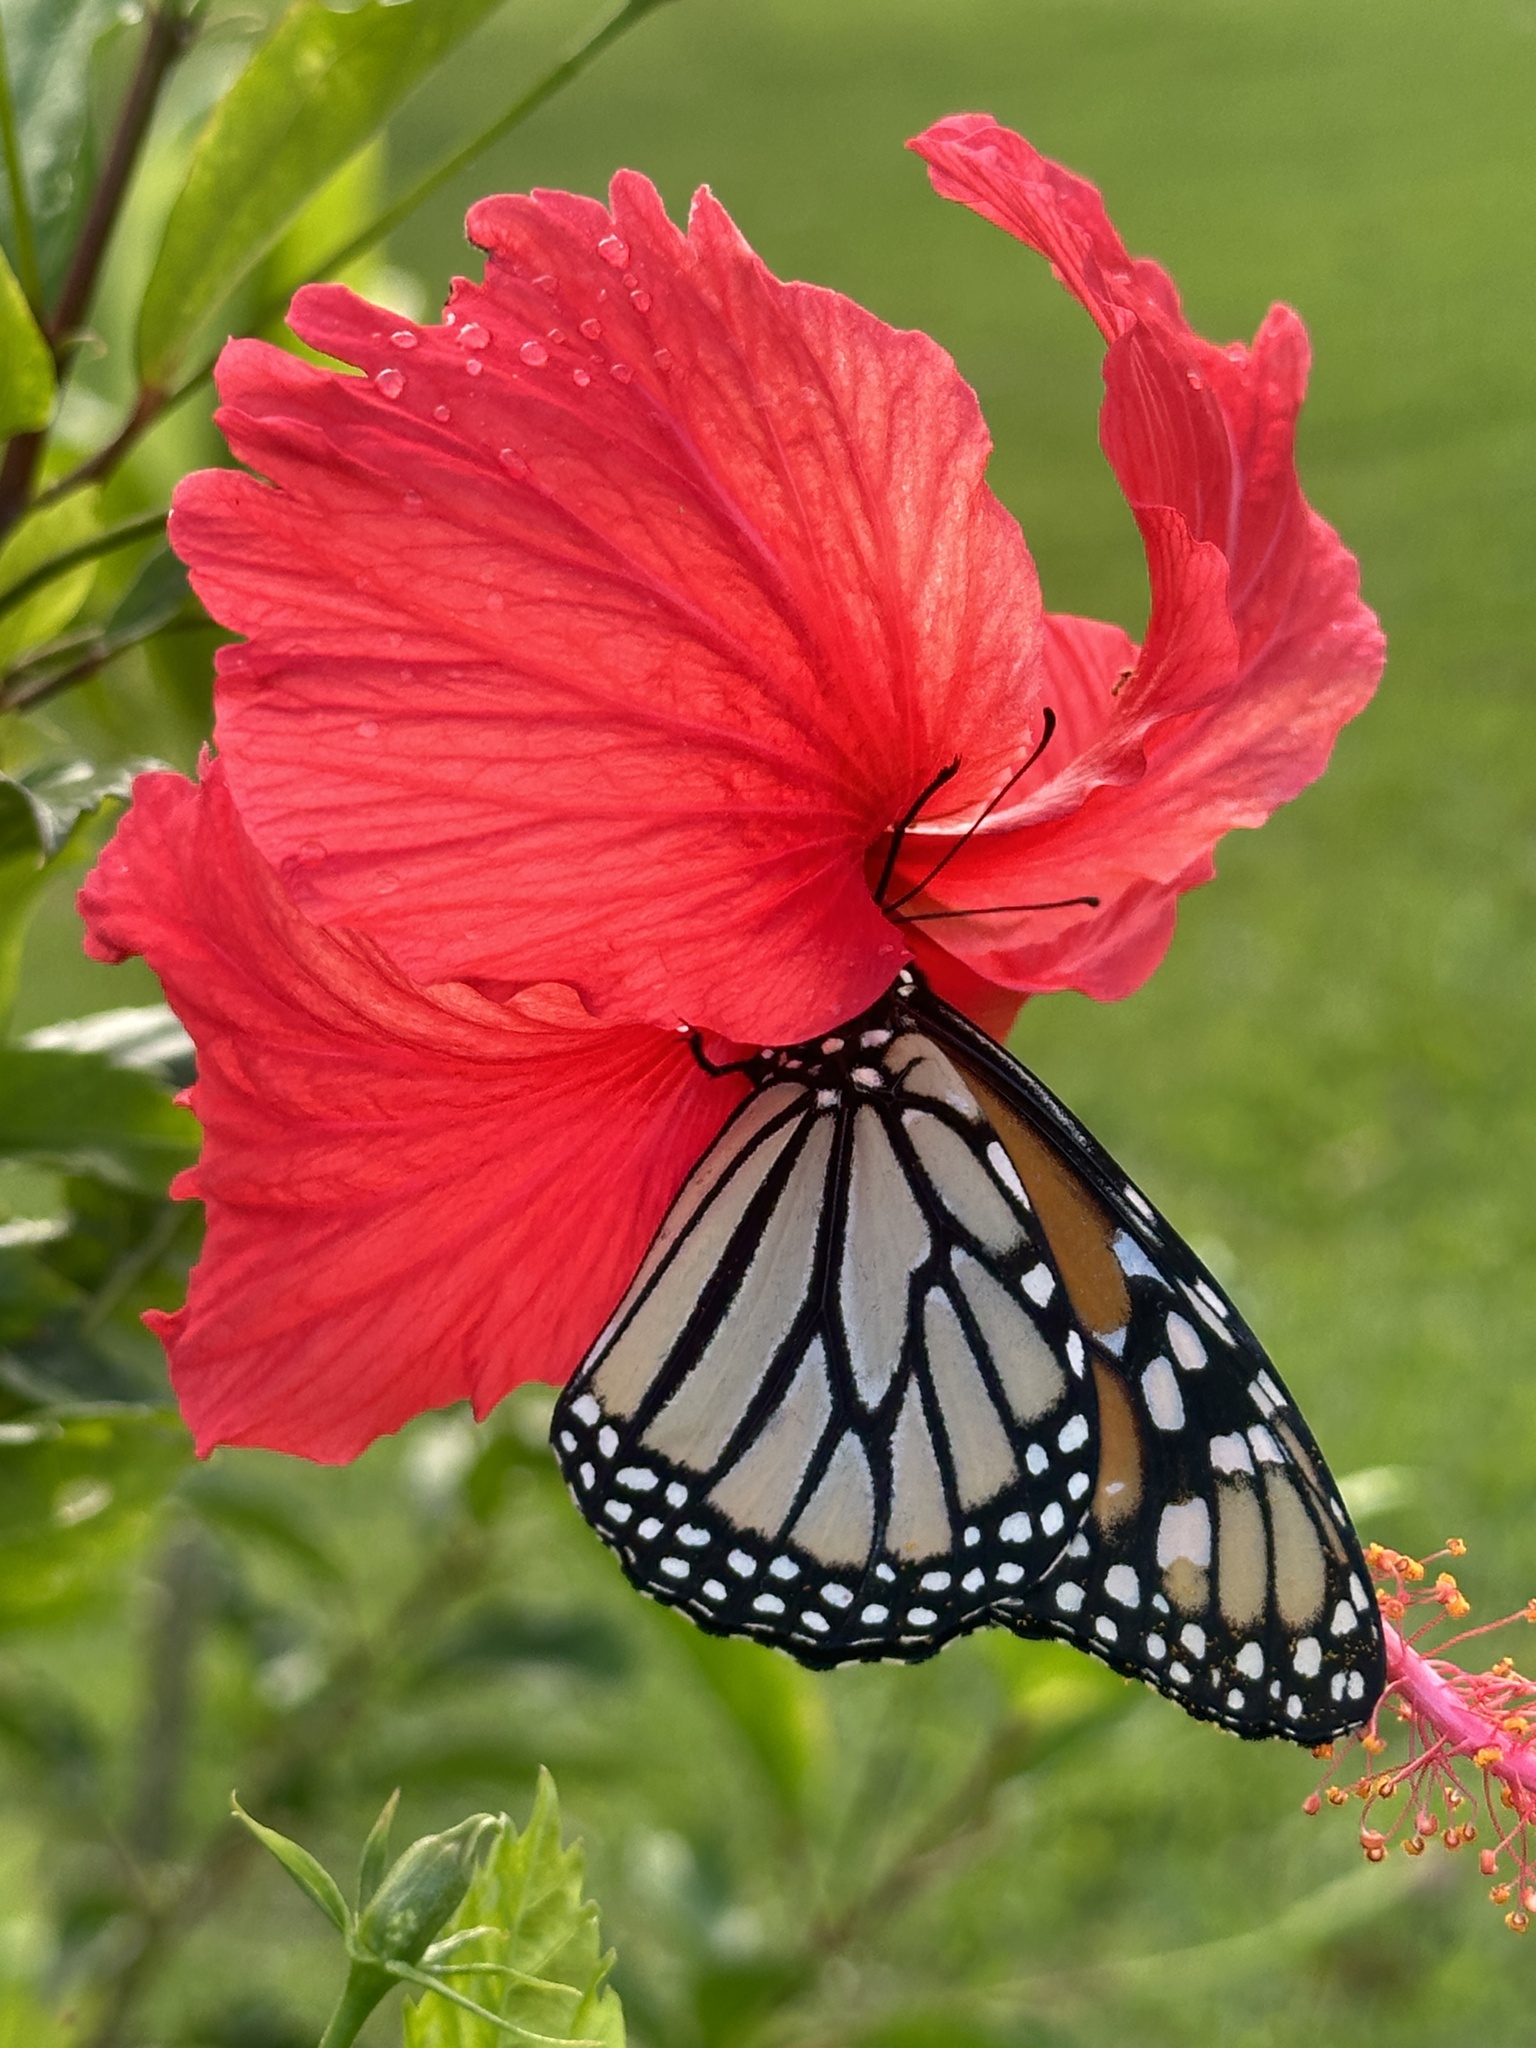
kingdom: Animalia
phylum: Arthropoda
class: Insecta
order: Lepidoptera
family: Nymphalidae
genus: Danaus
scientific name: Danaus plexippus
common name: Monarch
